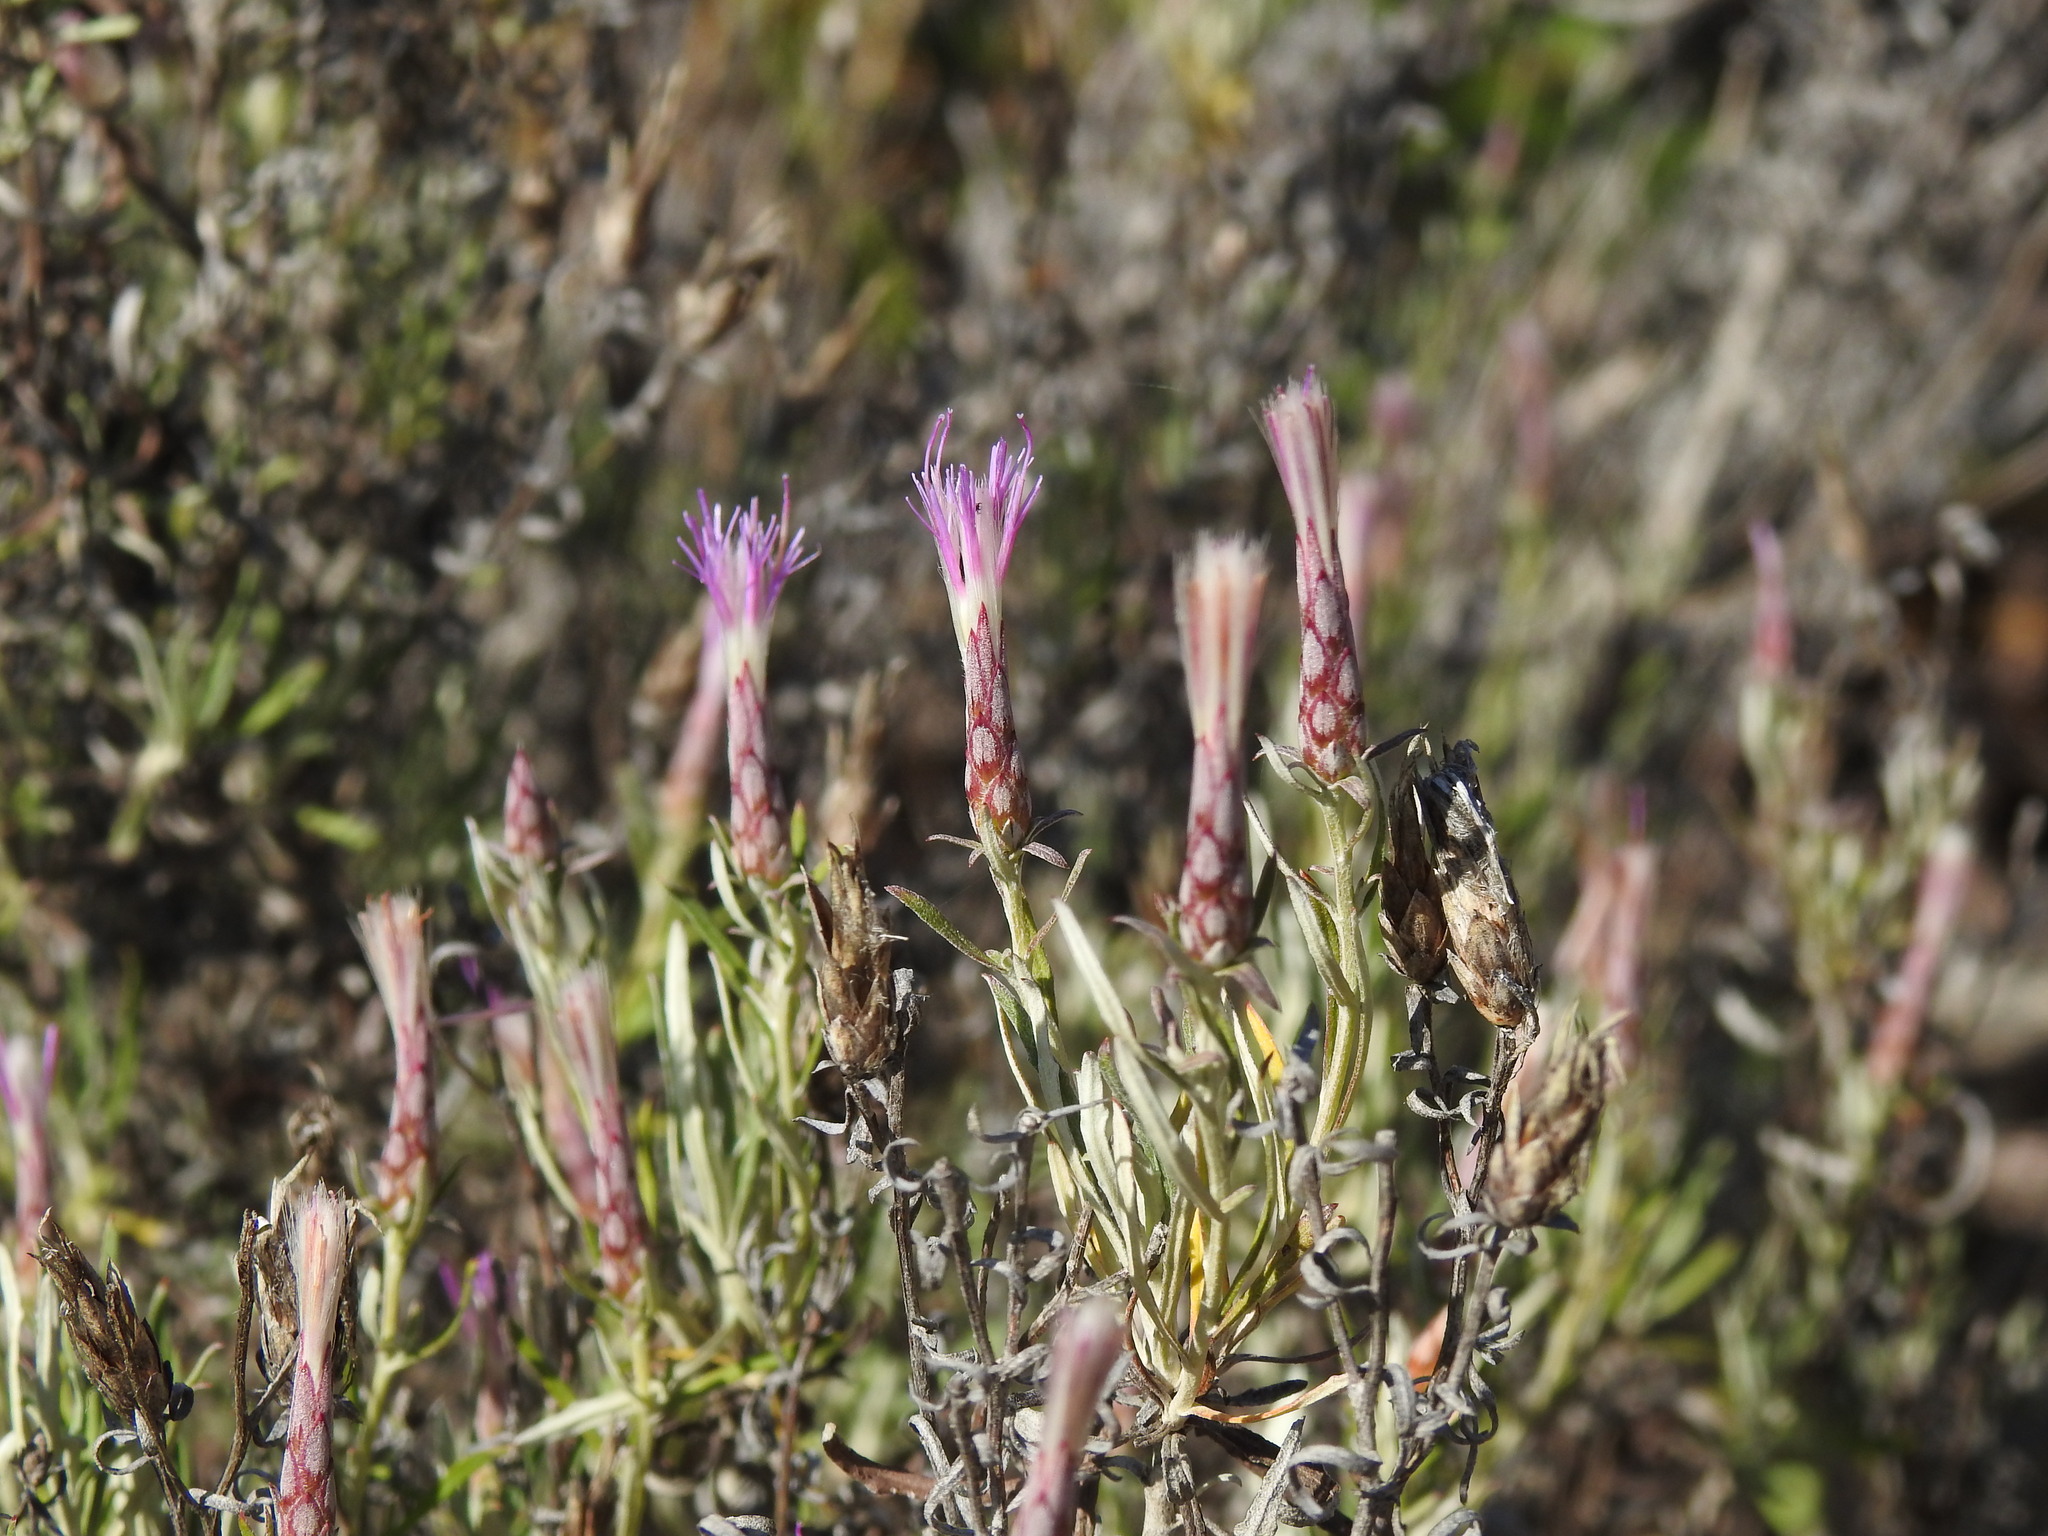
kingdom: Plantae
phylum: Tracheophyta
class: Magnoliopsida
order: Asterales
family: Asteraceae
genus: Staehelina
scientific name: Staehelina dubia
